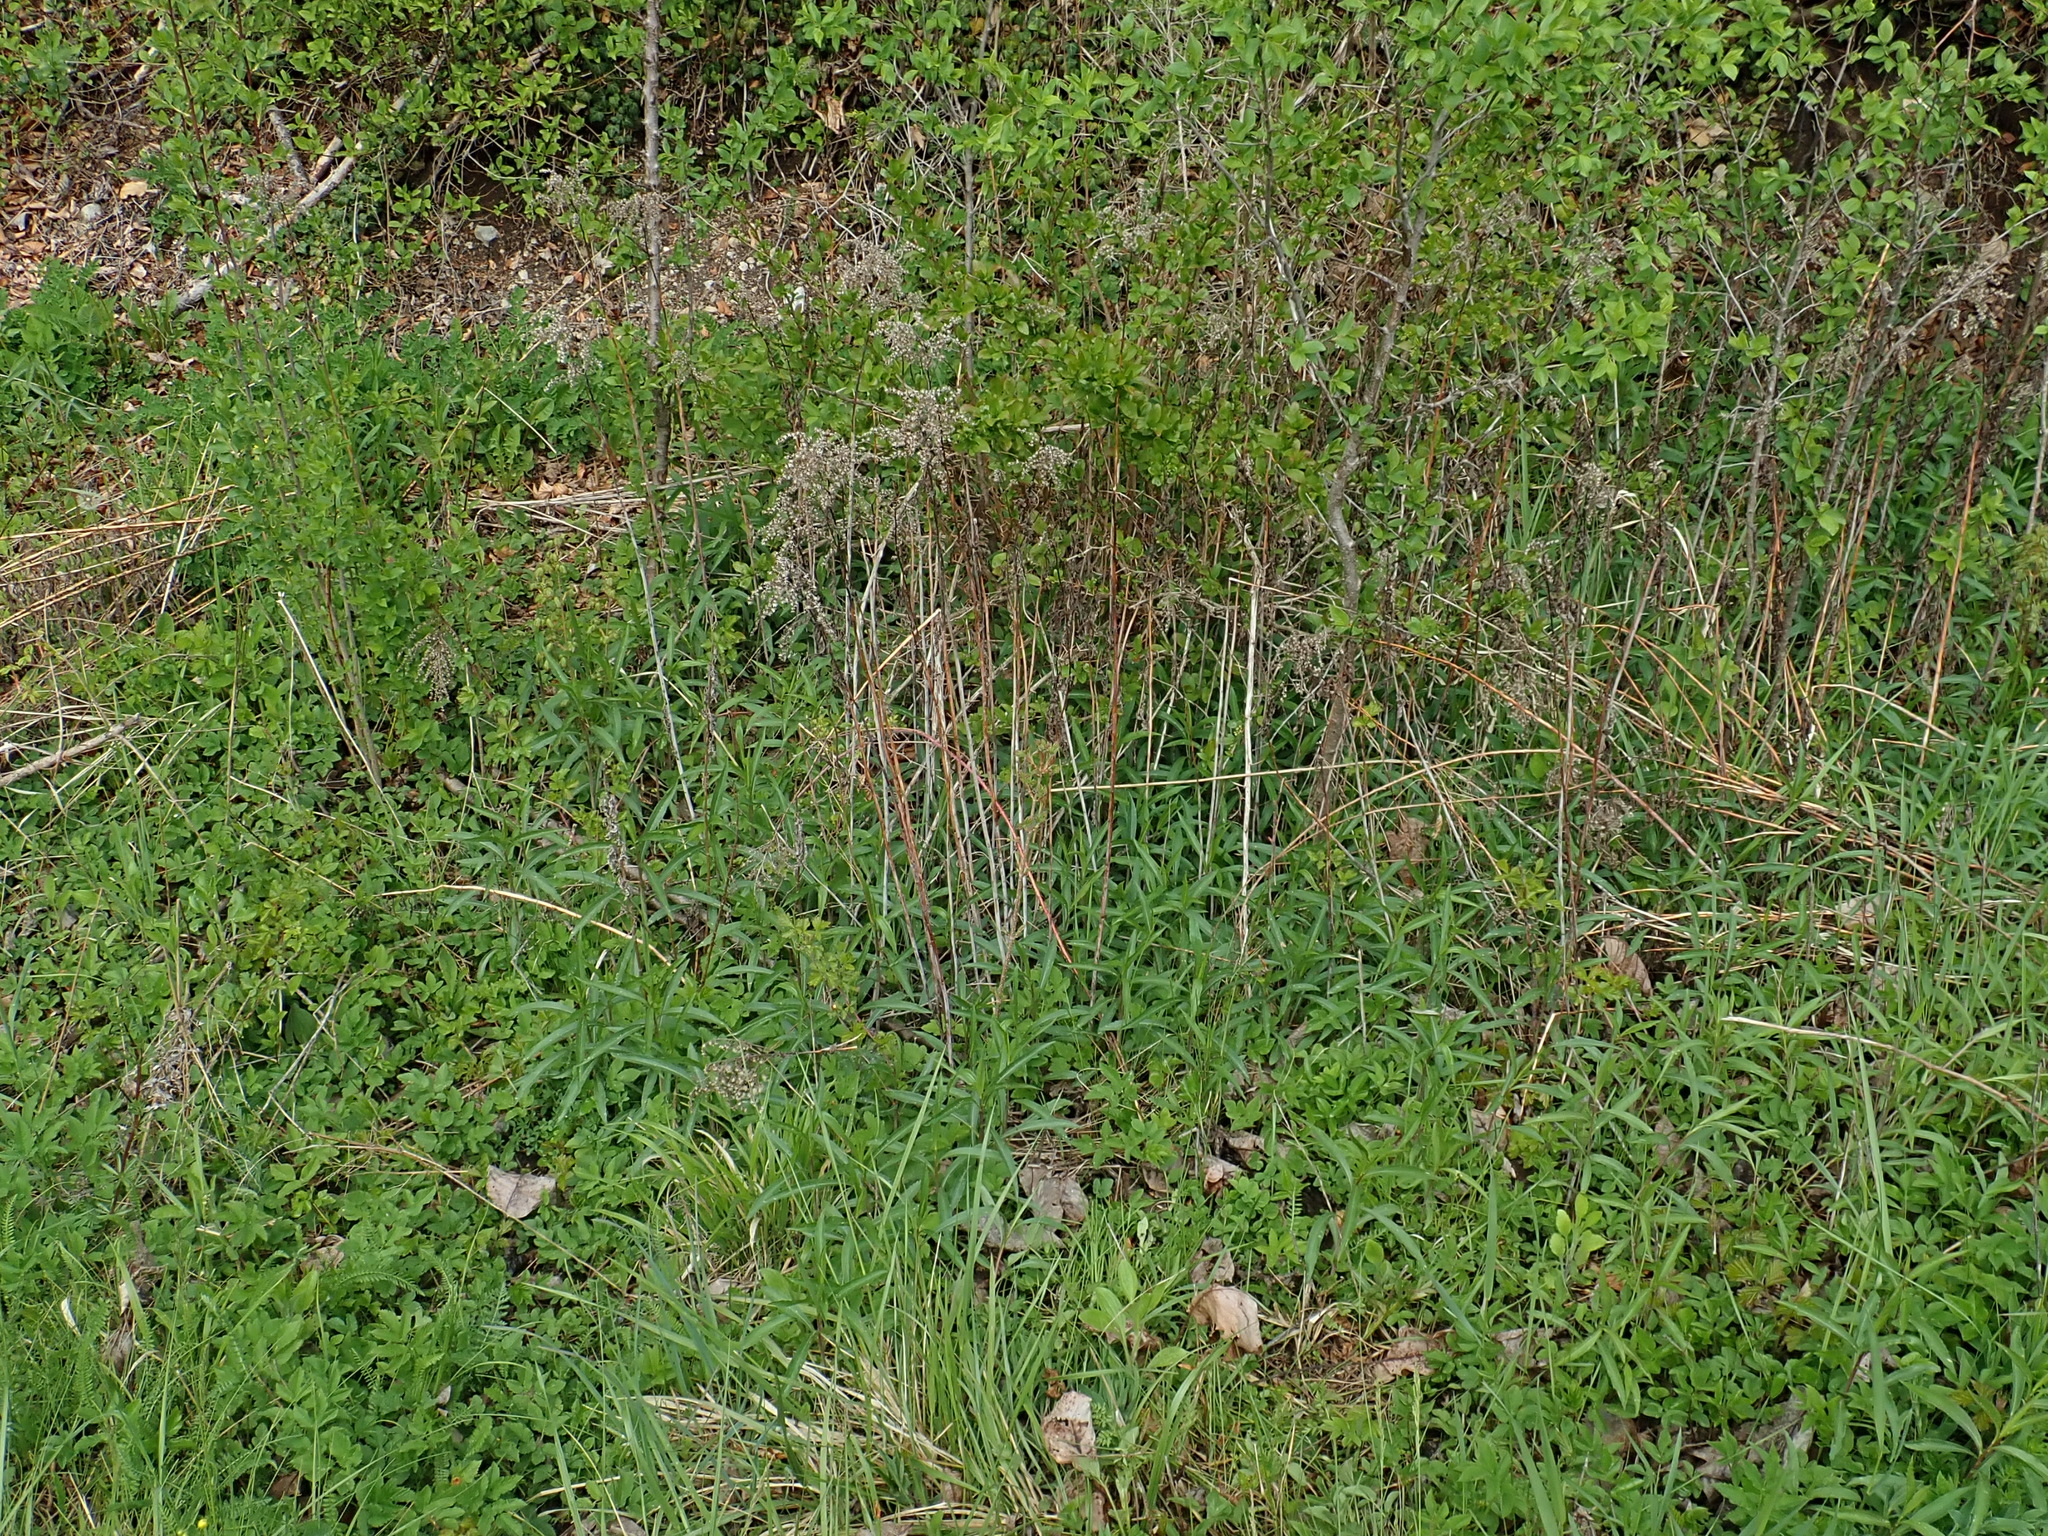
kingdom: Plantae
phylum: Tracheophyta
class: Magnoliopsida
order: Asterales
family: Asteraceae
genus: Solidago
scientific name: Solidago gigantea
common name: Giant goldenrod
